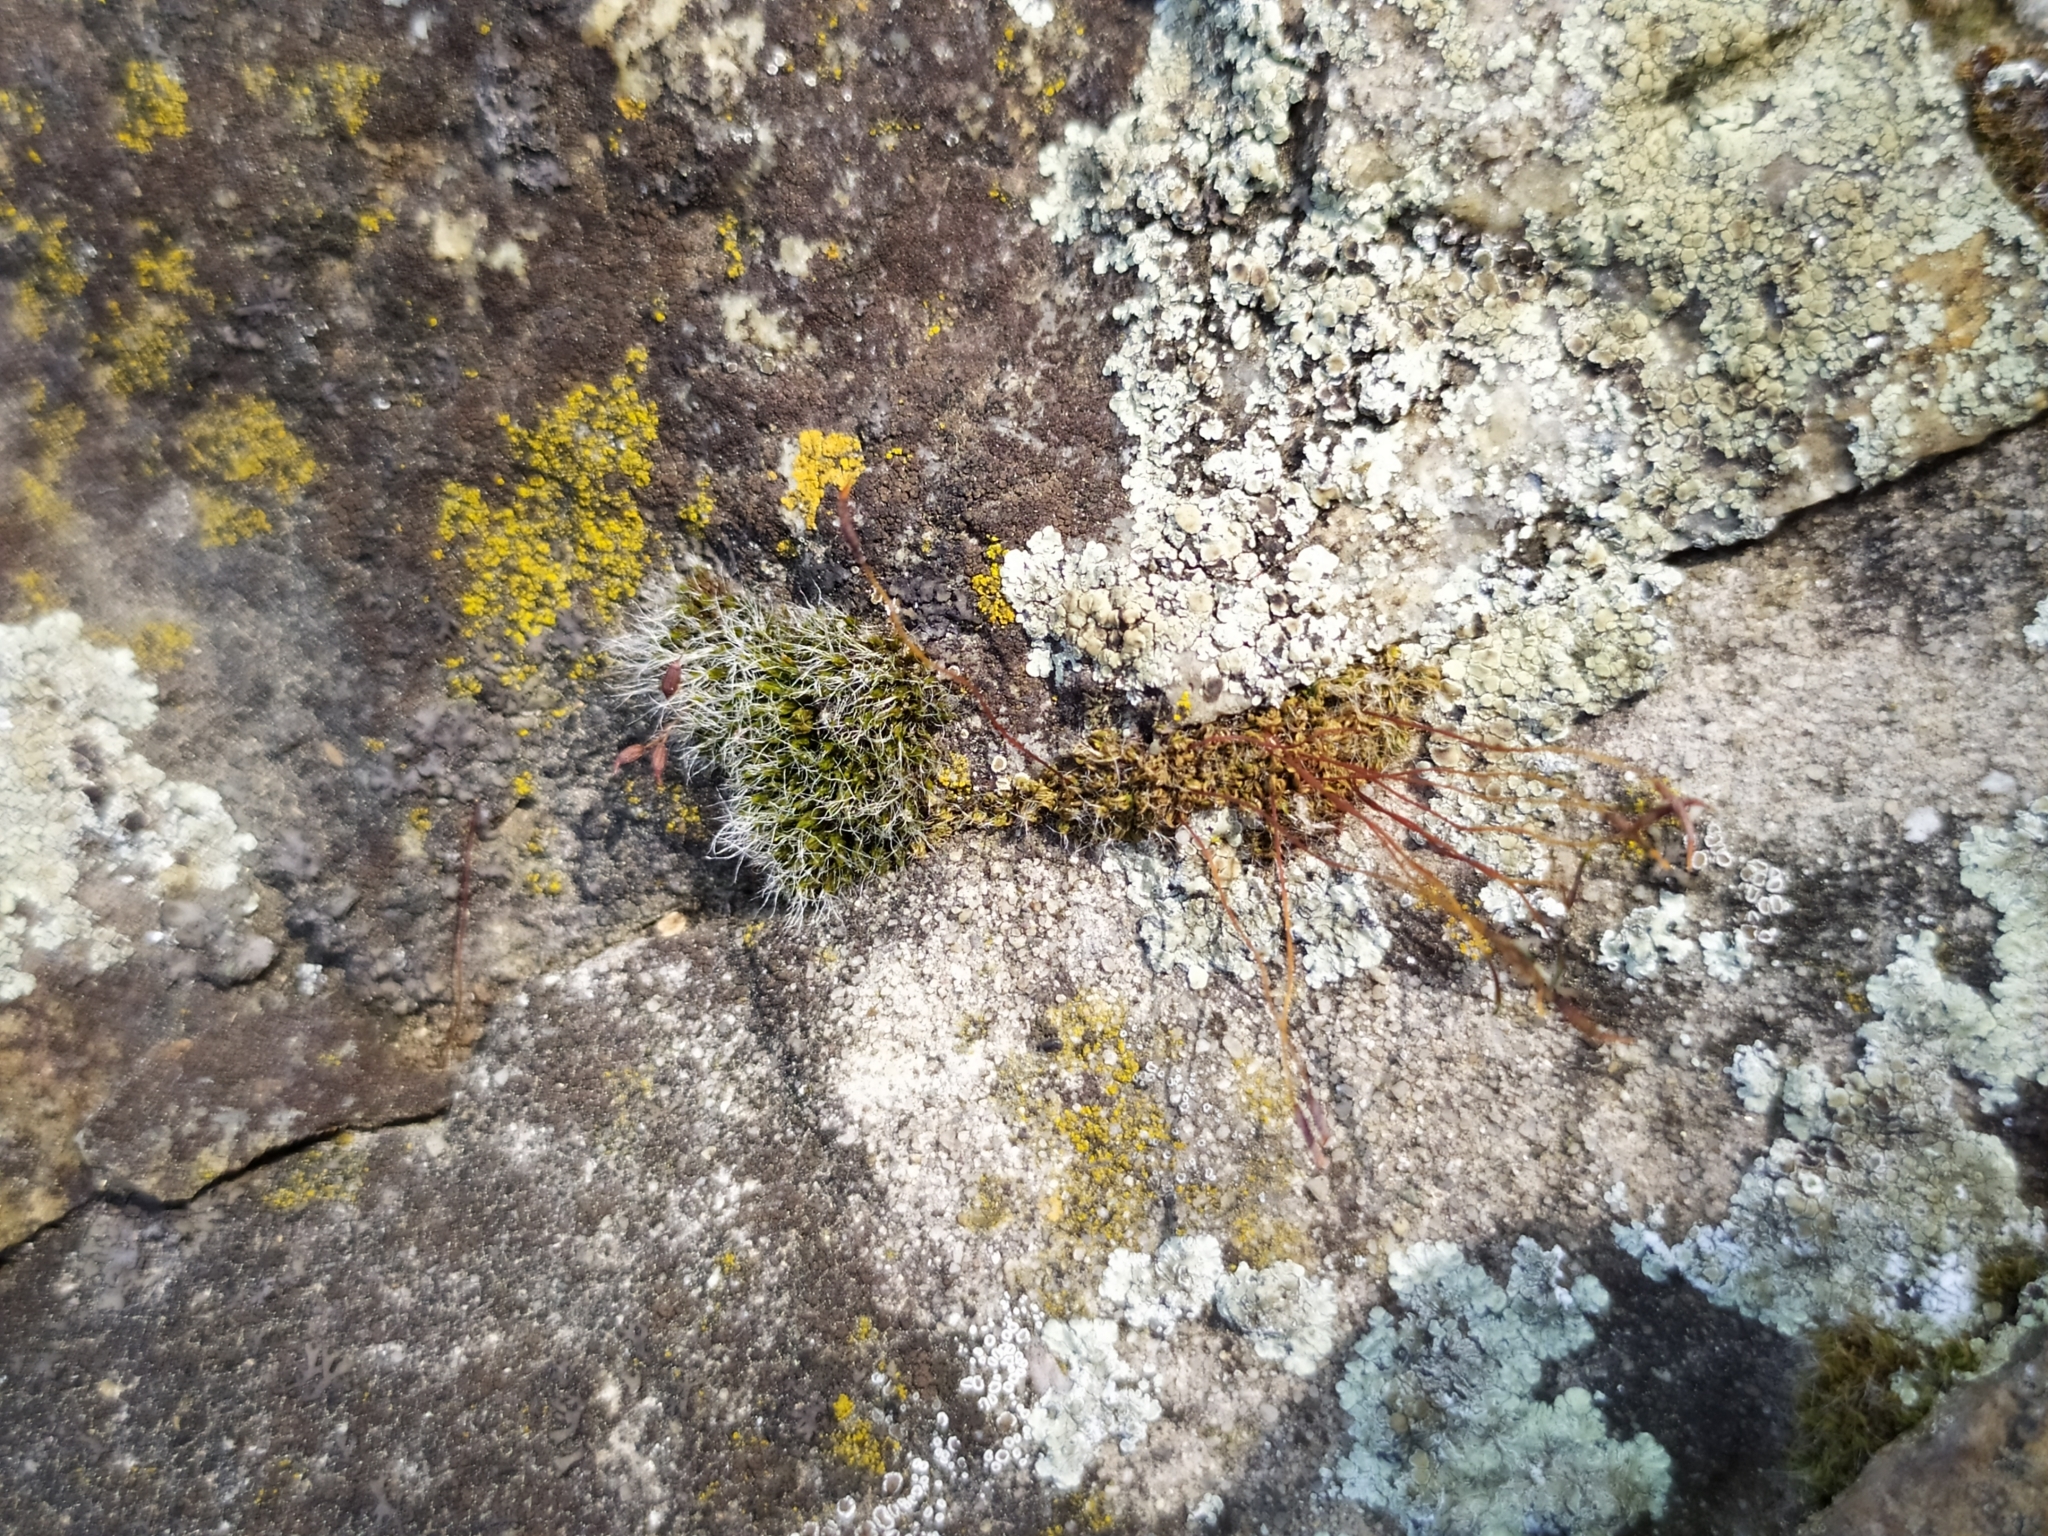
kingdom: Plantae
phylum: Bryophyta
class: Bryopsida
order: Grimmiales
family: Grimmiaceae
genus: Grimmia
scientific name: Grimmia pulvinata
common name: Grey-cushioned grimmia
